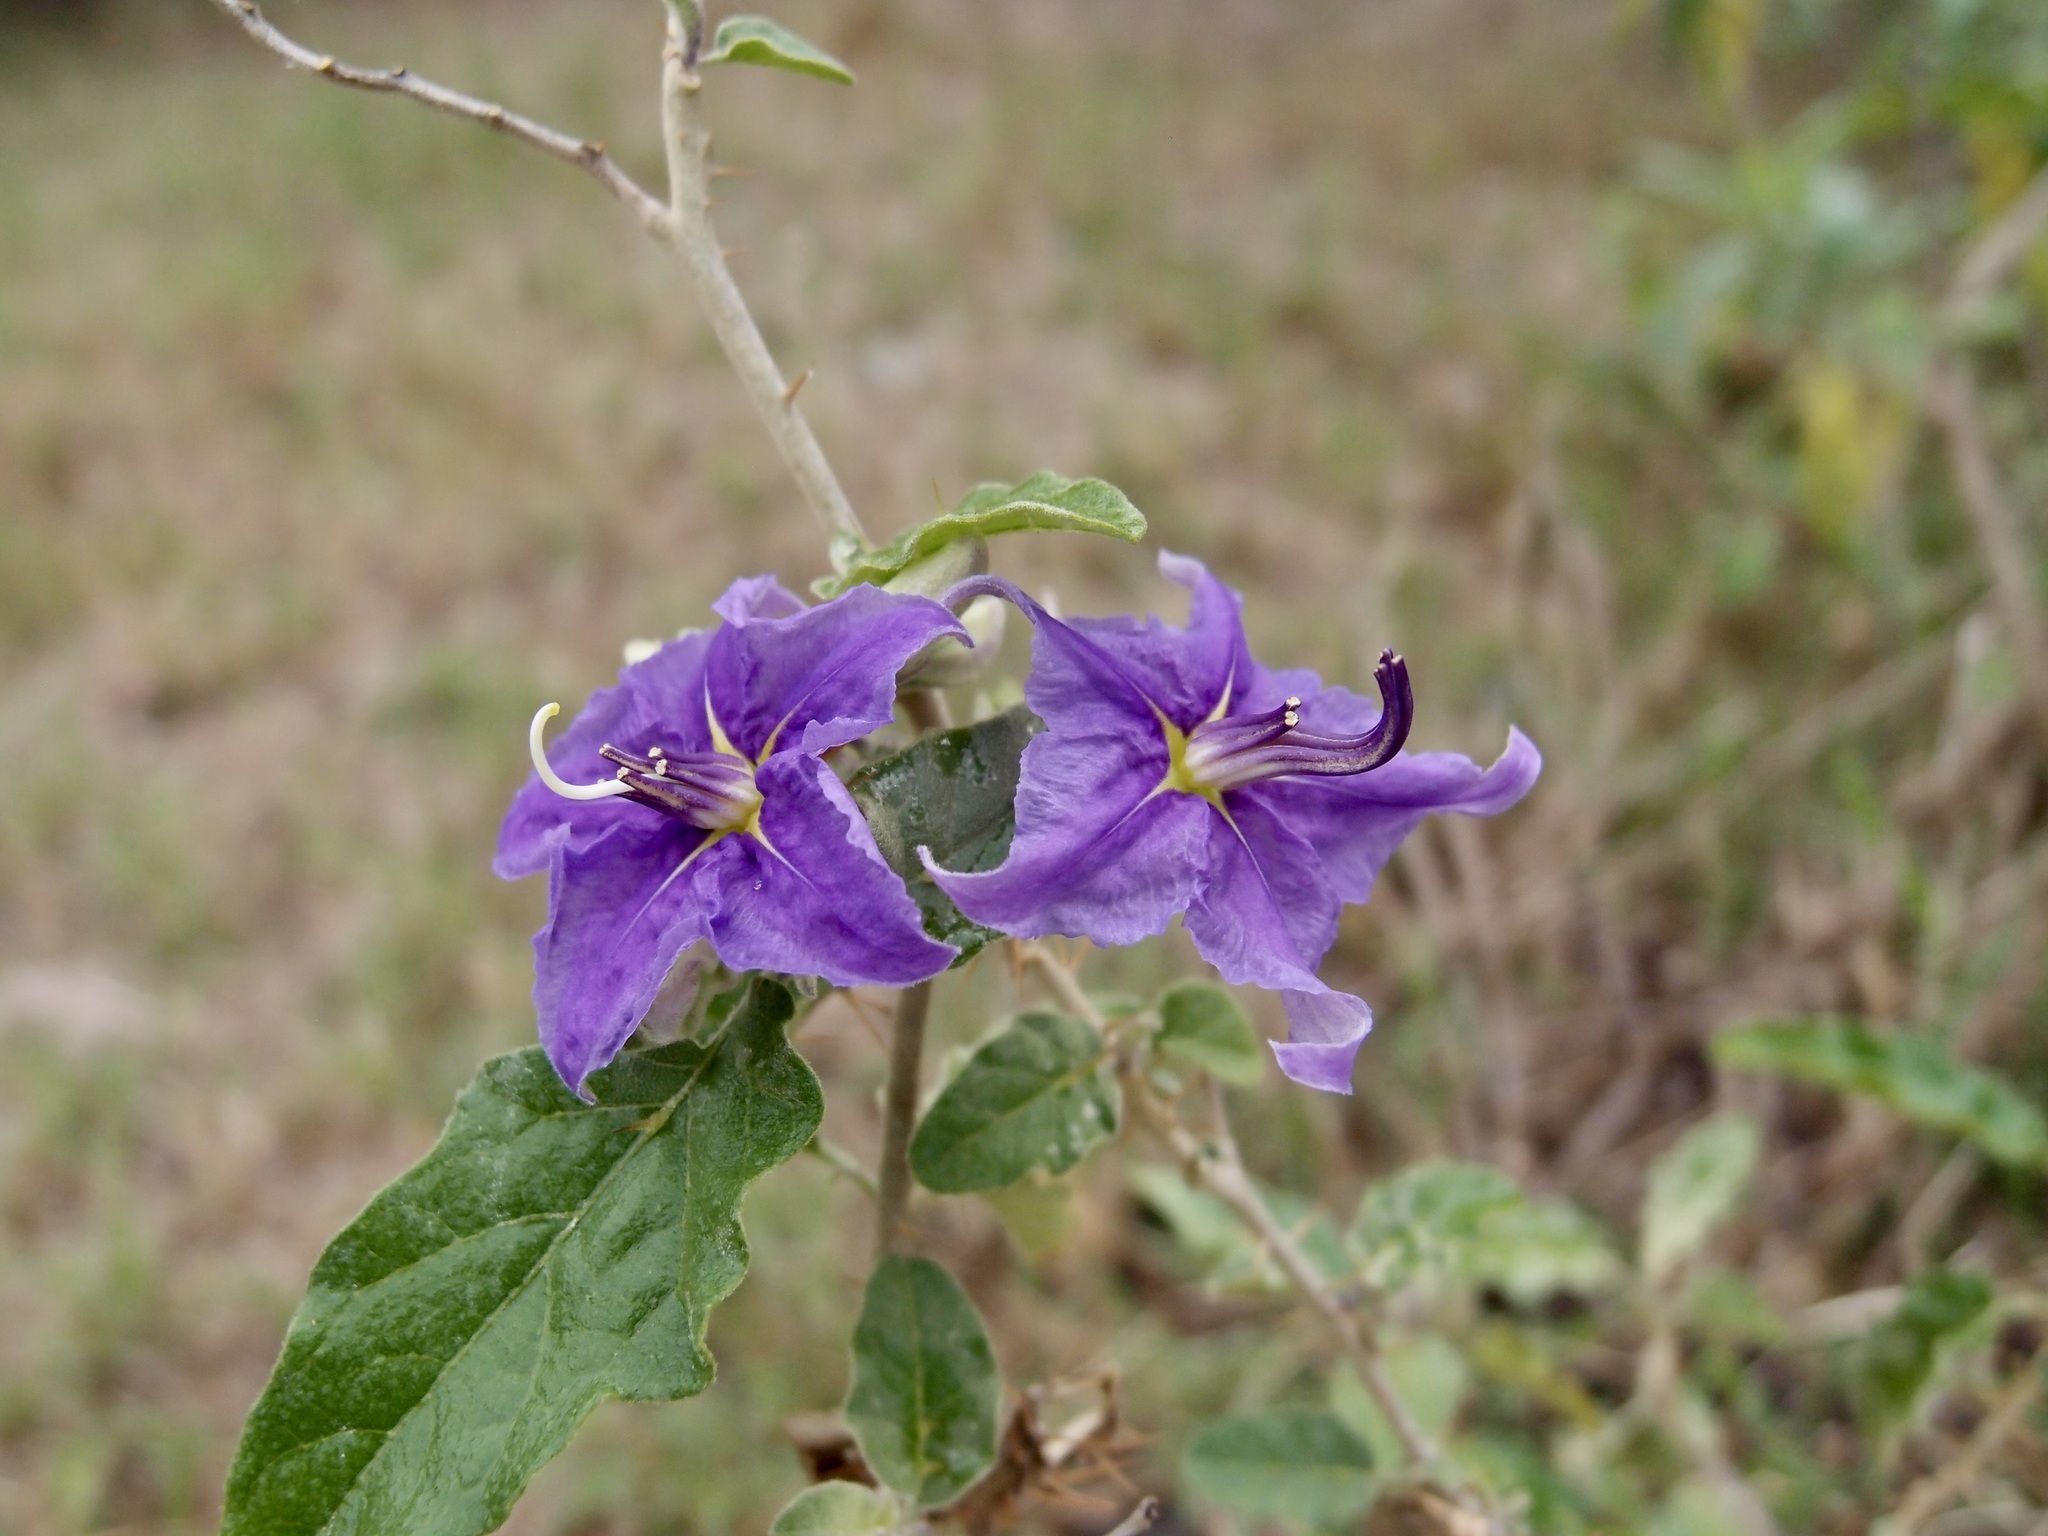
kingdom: Plantae
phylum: Tracheophyta
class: Magnoliopsida
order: Solanales
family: Solanaceae
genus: Solanum
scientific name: Solanum houstonii
